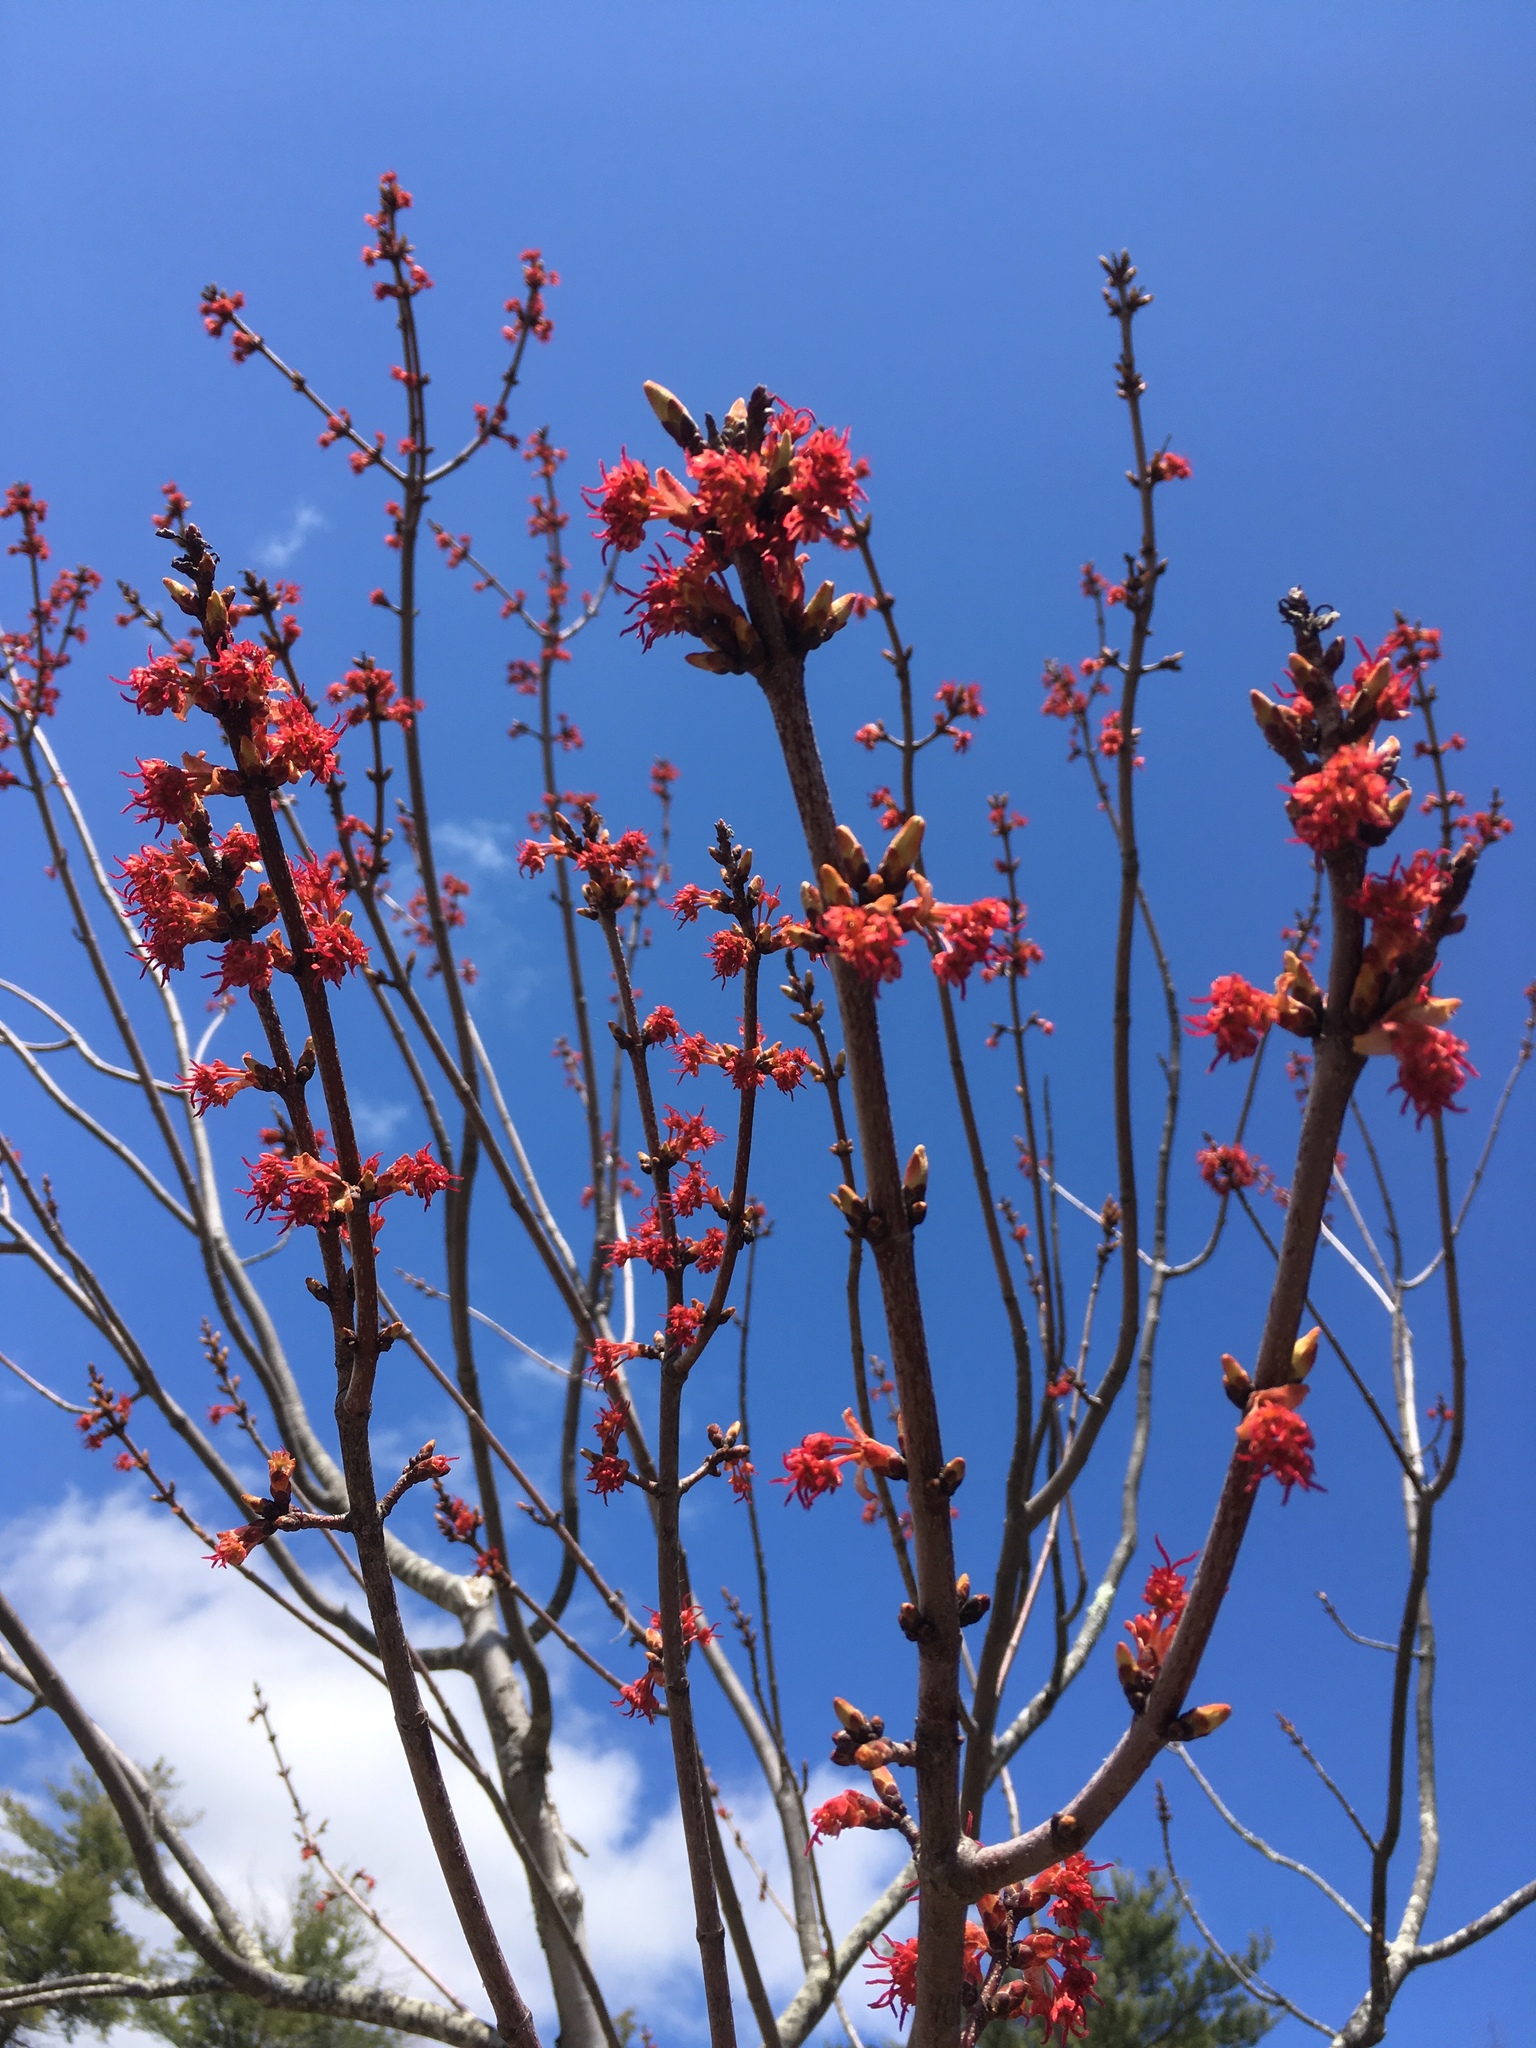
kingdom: Plantae
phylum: Tracheophyta
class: Magnoliopsida
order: Sapindales
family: Sapindaceae
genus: Acer
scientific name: Acer rubrum
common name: Red maple
